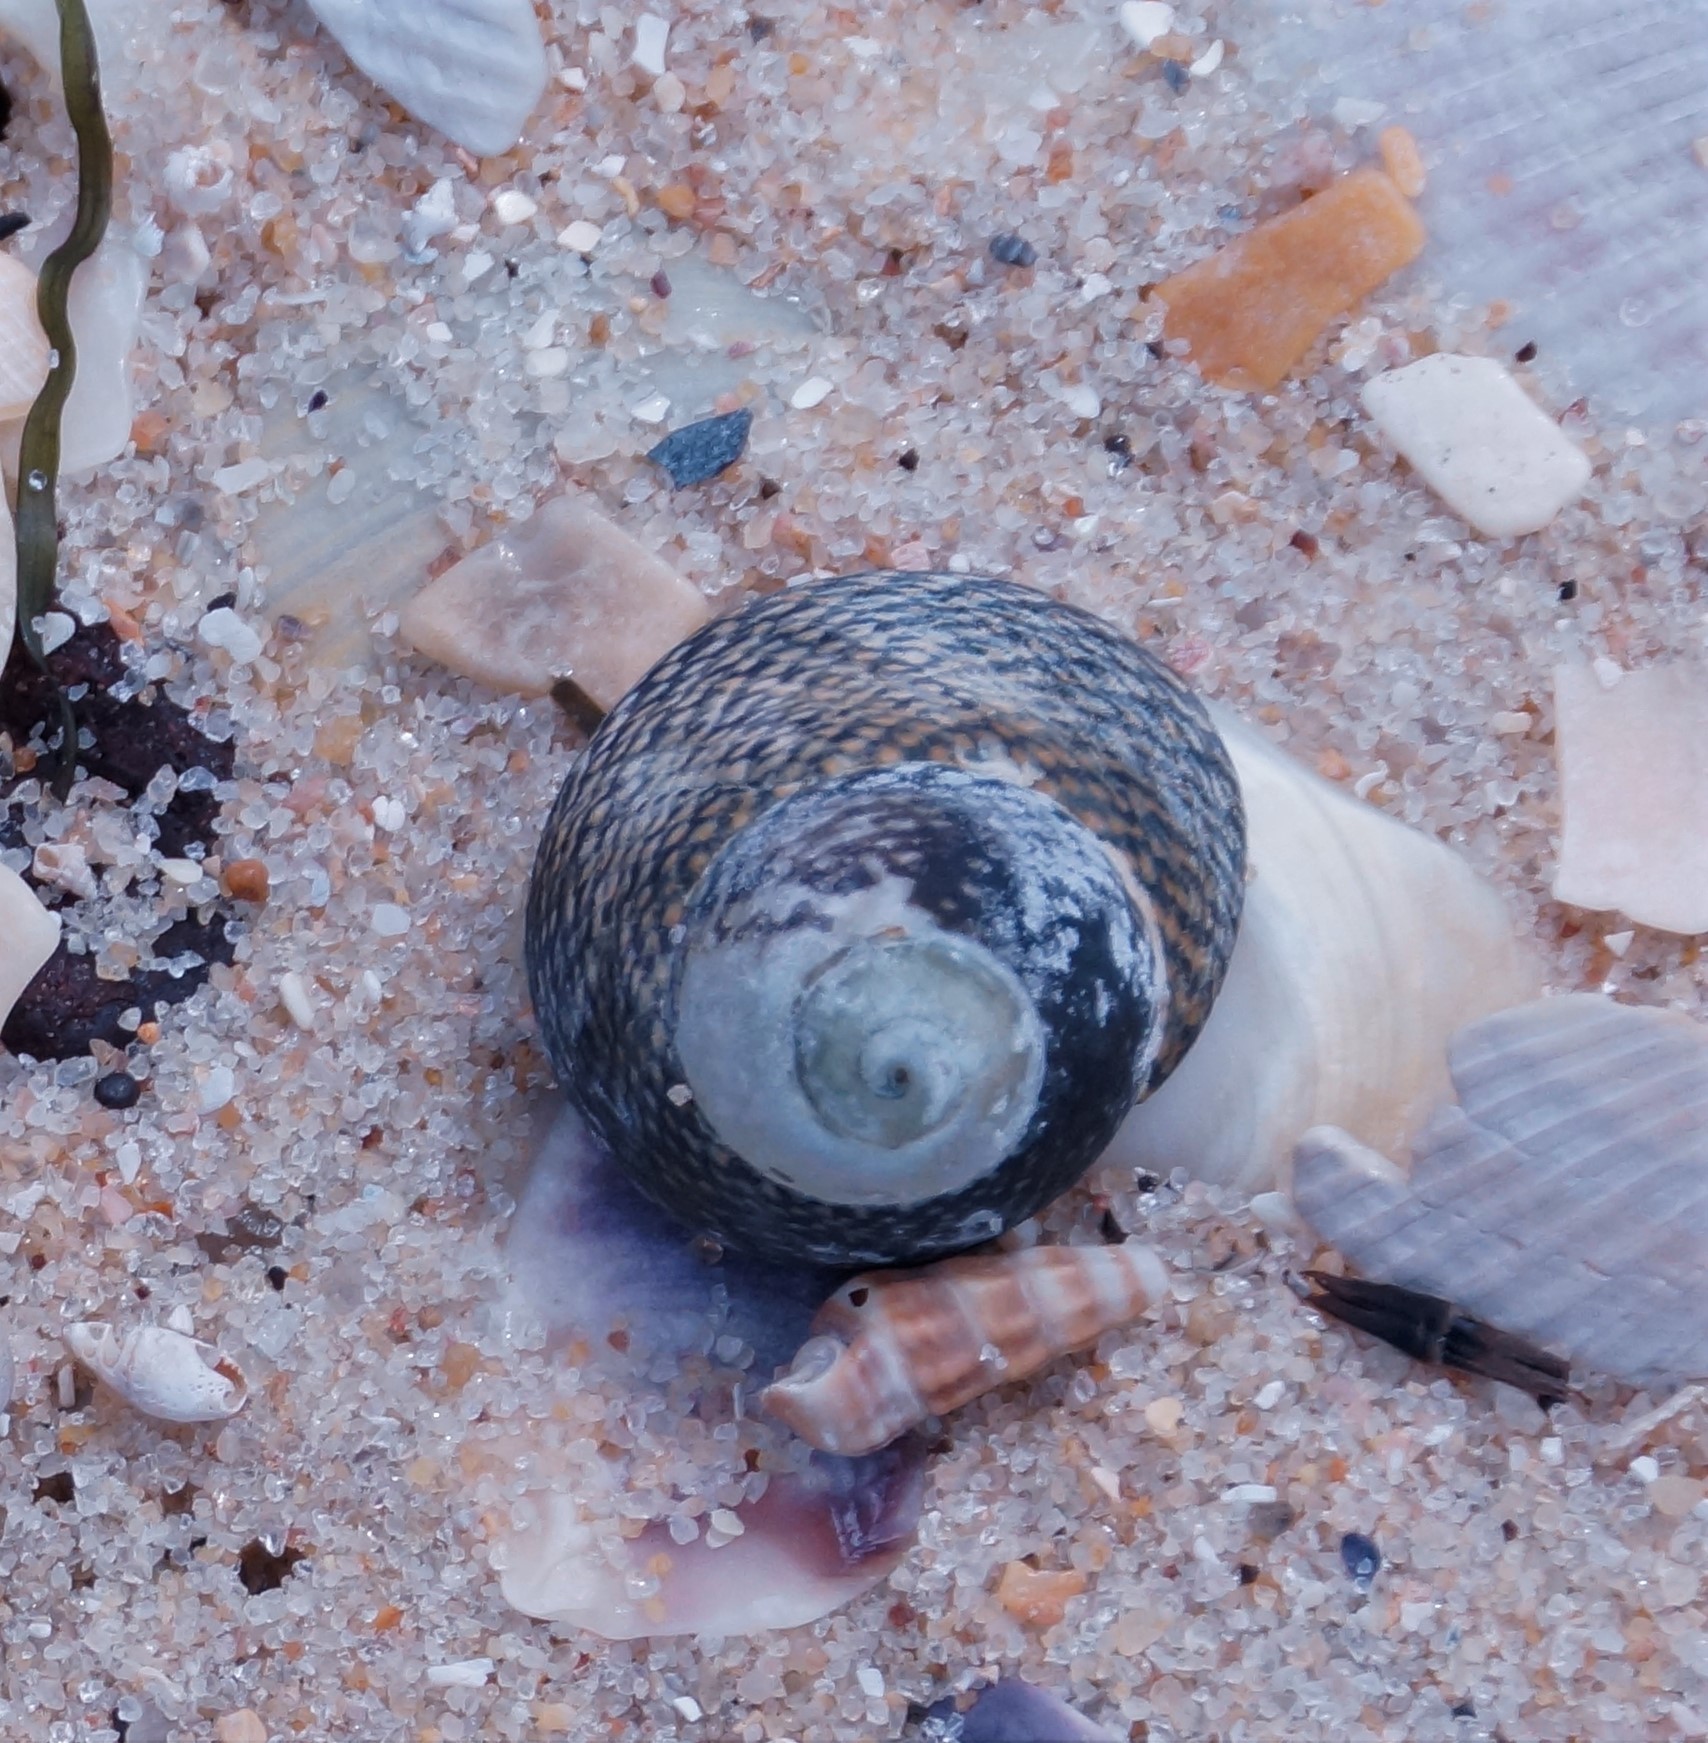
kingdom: Animalia
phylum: Mollusca
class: Gastropoda
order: Trochida
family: Trochidae
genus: Chlorodiloma
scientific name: Chlorodiloma odontis
